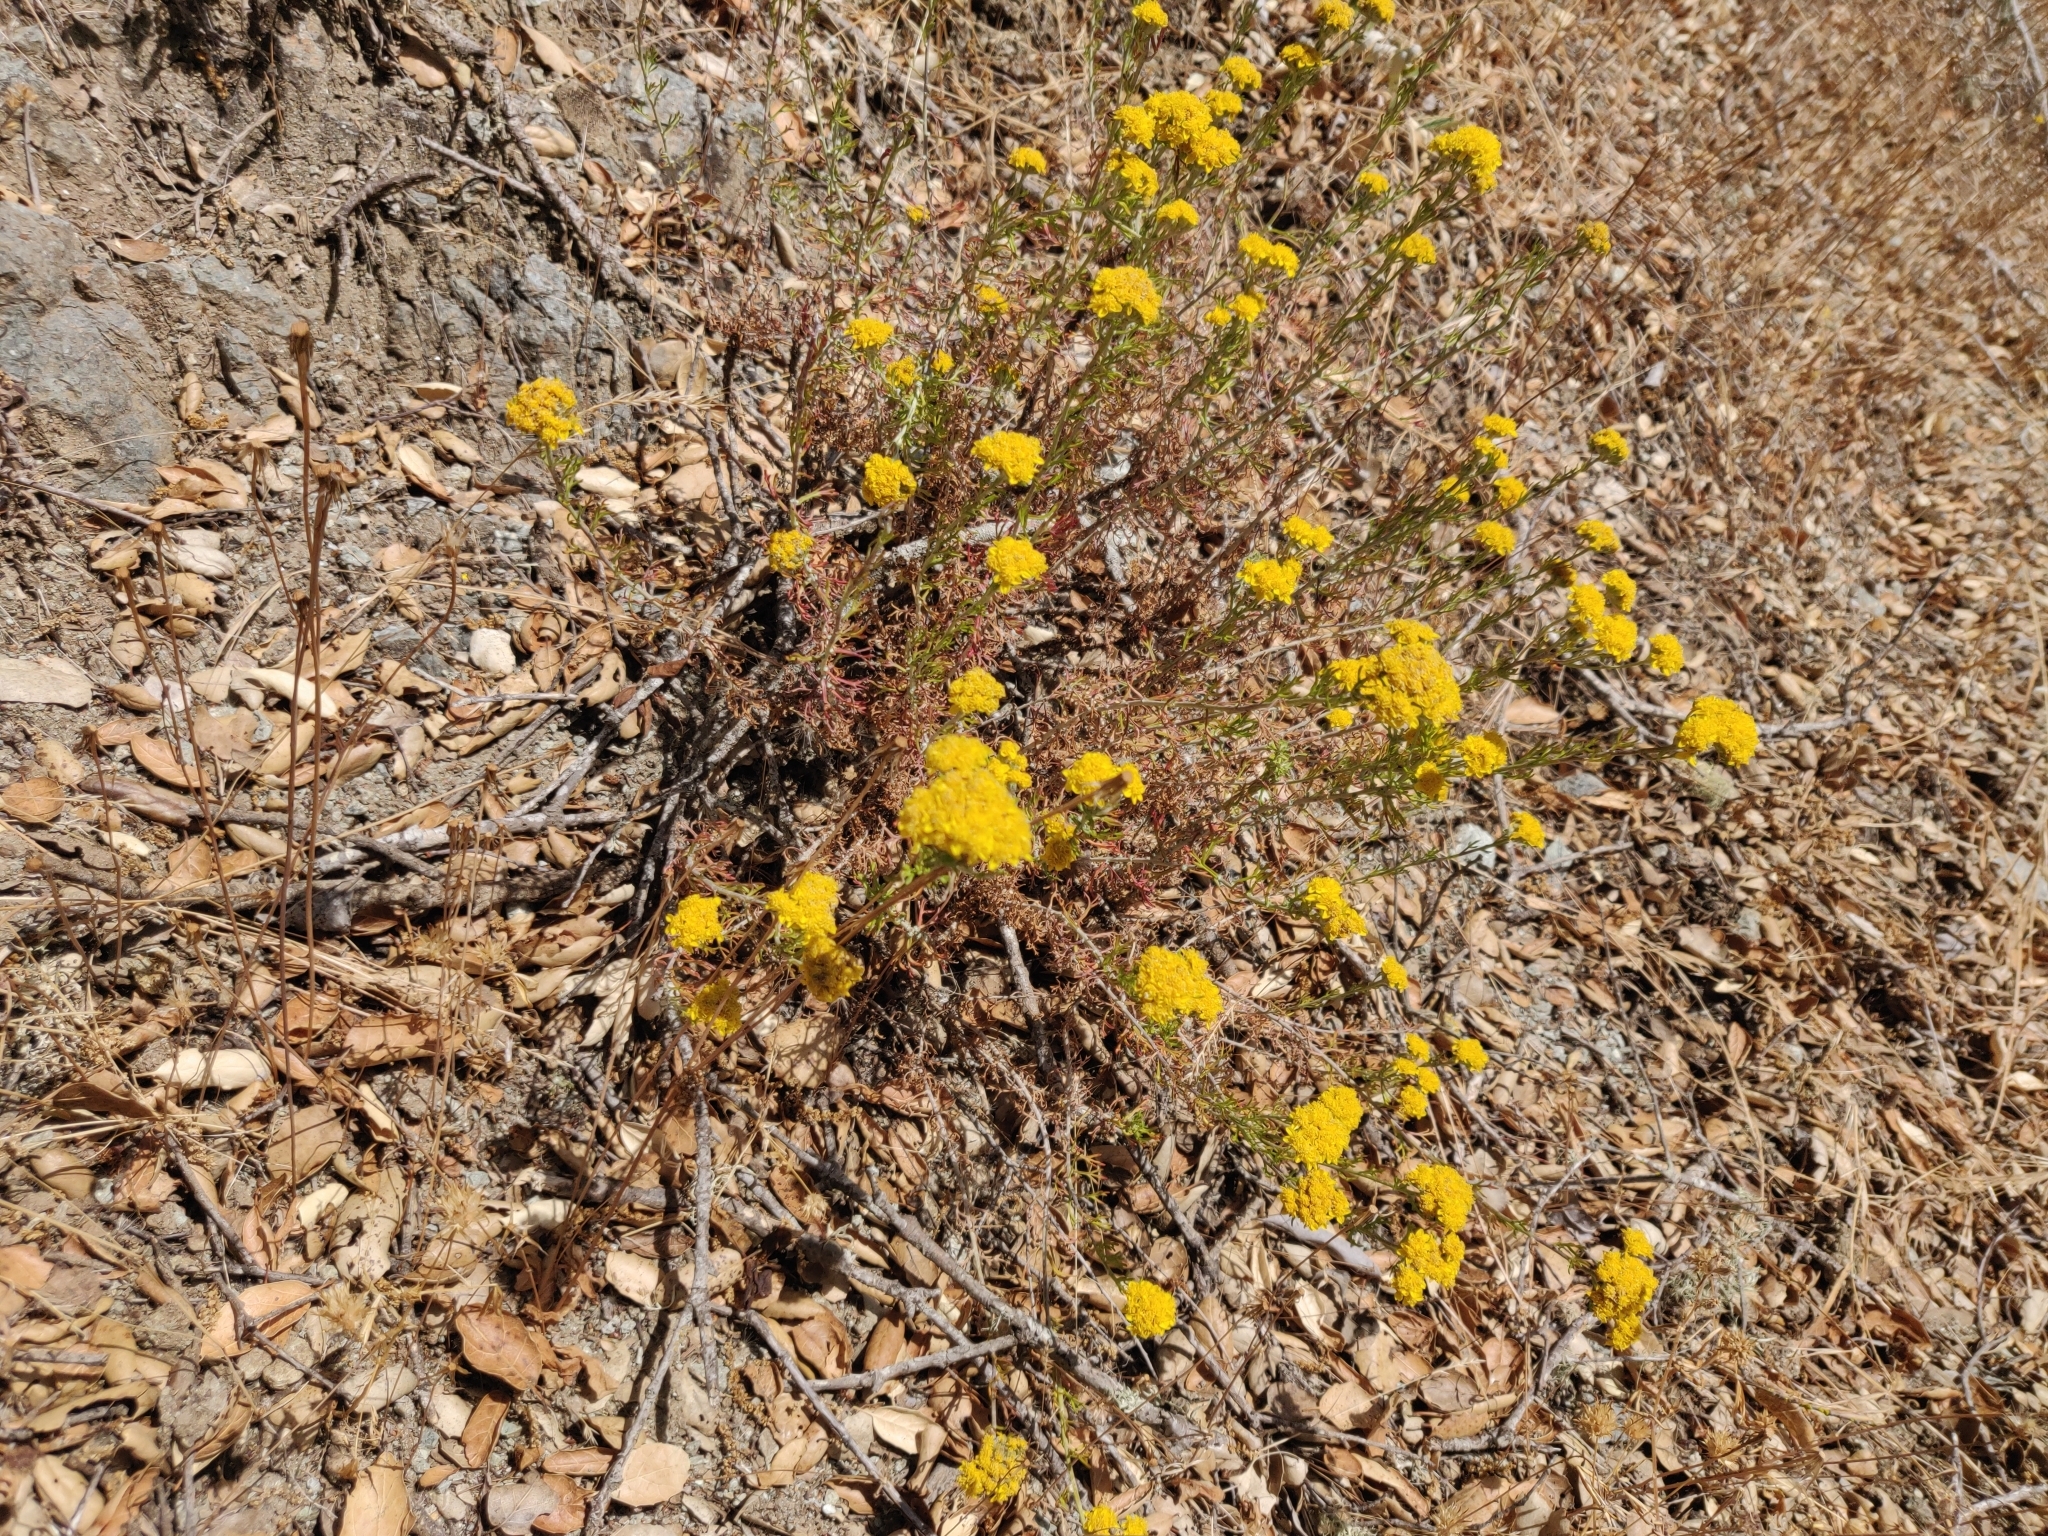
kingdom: Plantae
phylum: Tracheophyta
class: Magnoliopsida
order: Asterales
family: Asteraceae
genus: Eriophyllum
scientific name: Eriophyllum confertiflorum
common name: Golden-yarrow
